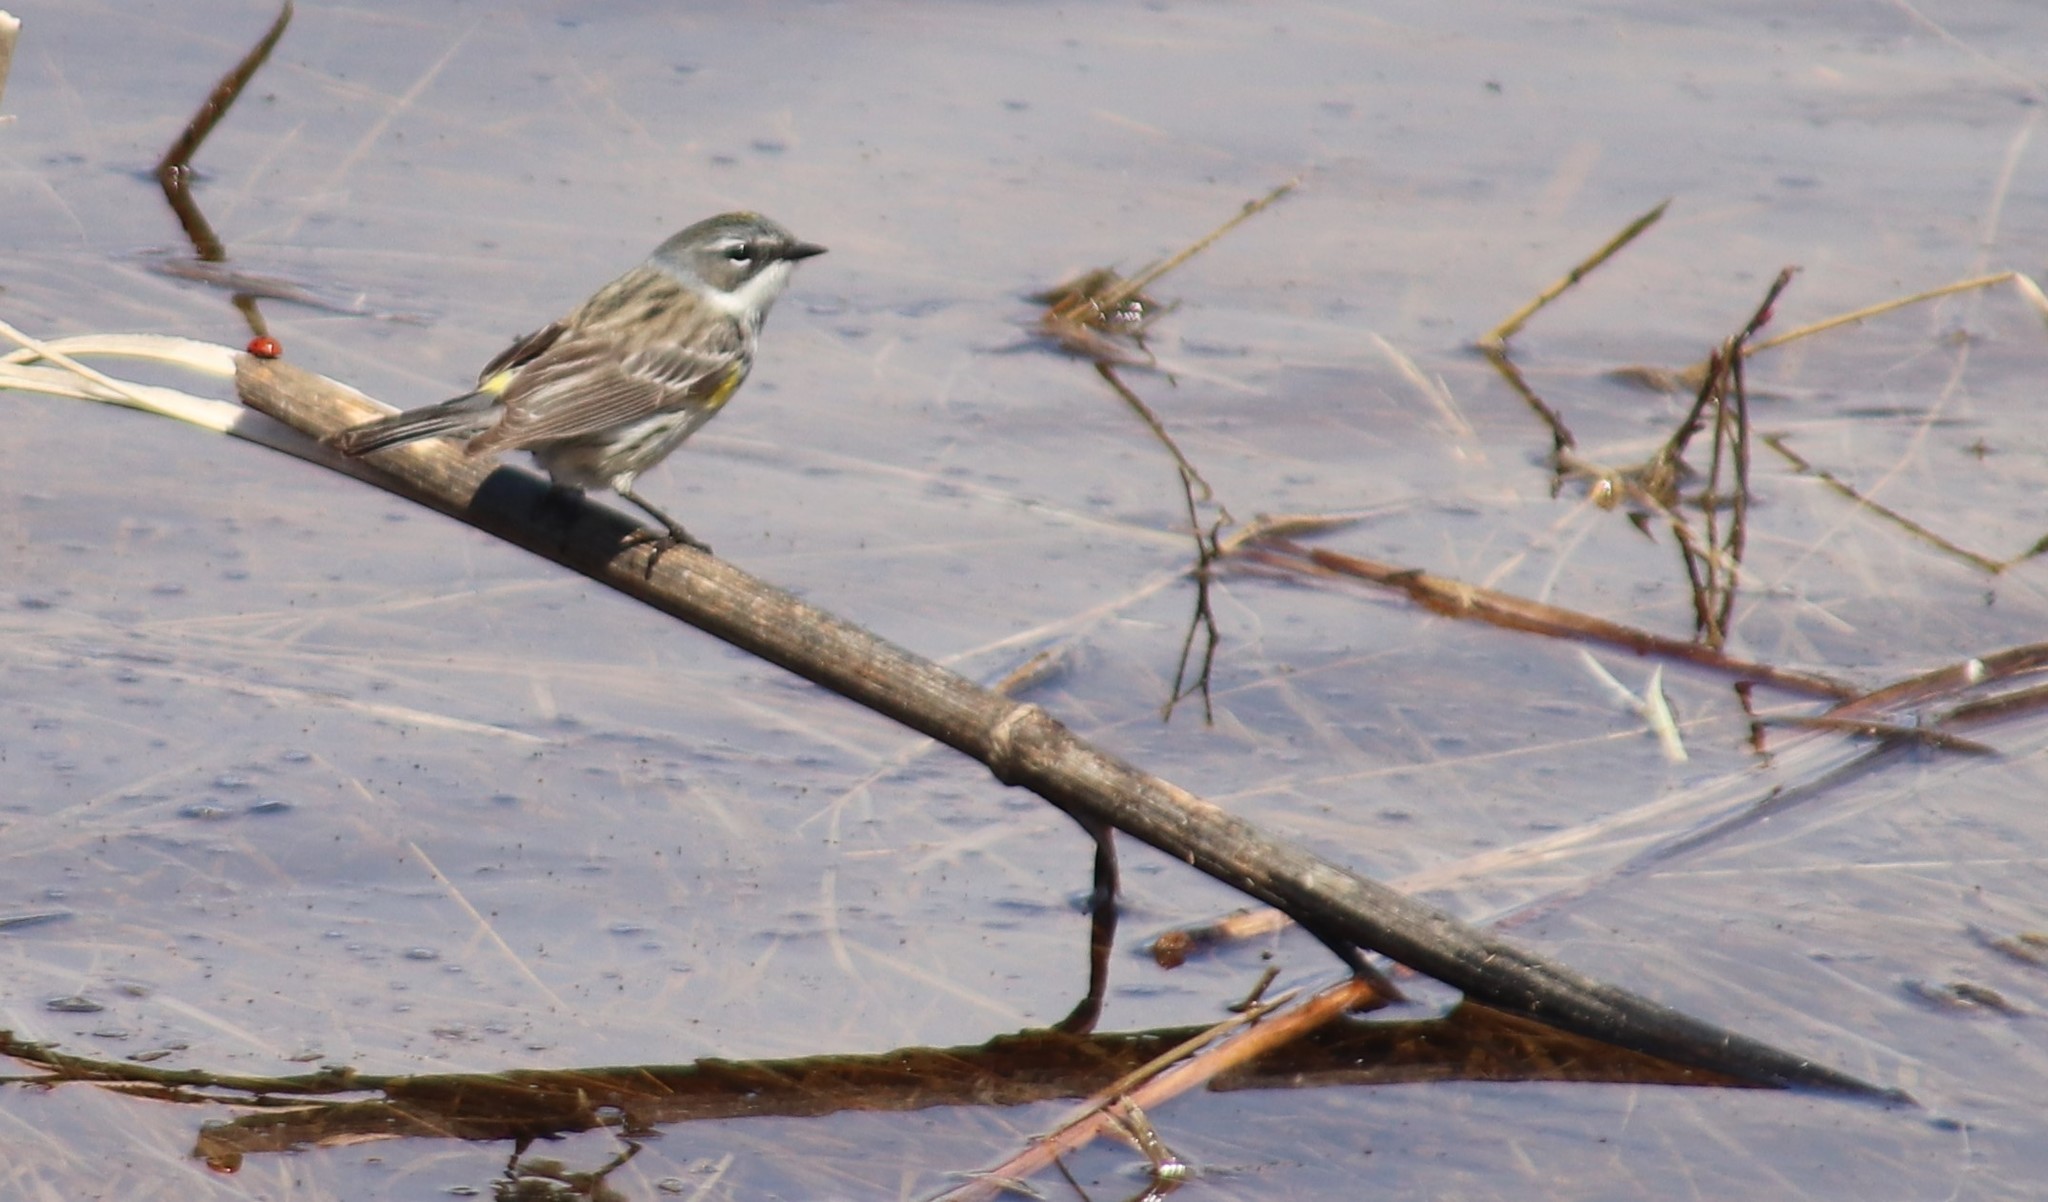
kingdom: Animalia
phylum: Chordata
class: Aves
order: Passeriformes
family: Parulidae
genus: Setophaga
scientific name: Setophaga coronata
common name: Myrtle warbler
